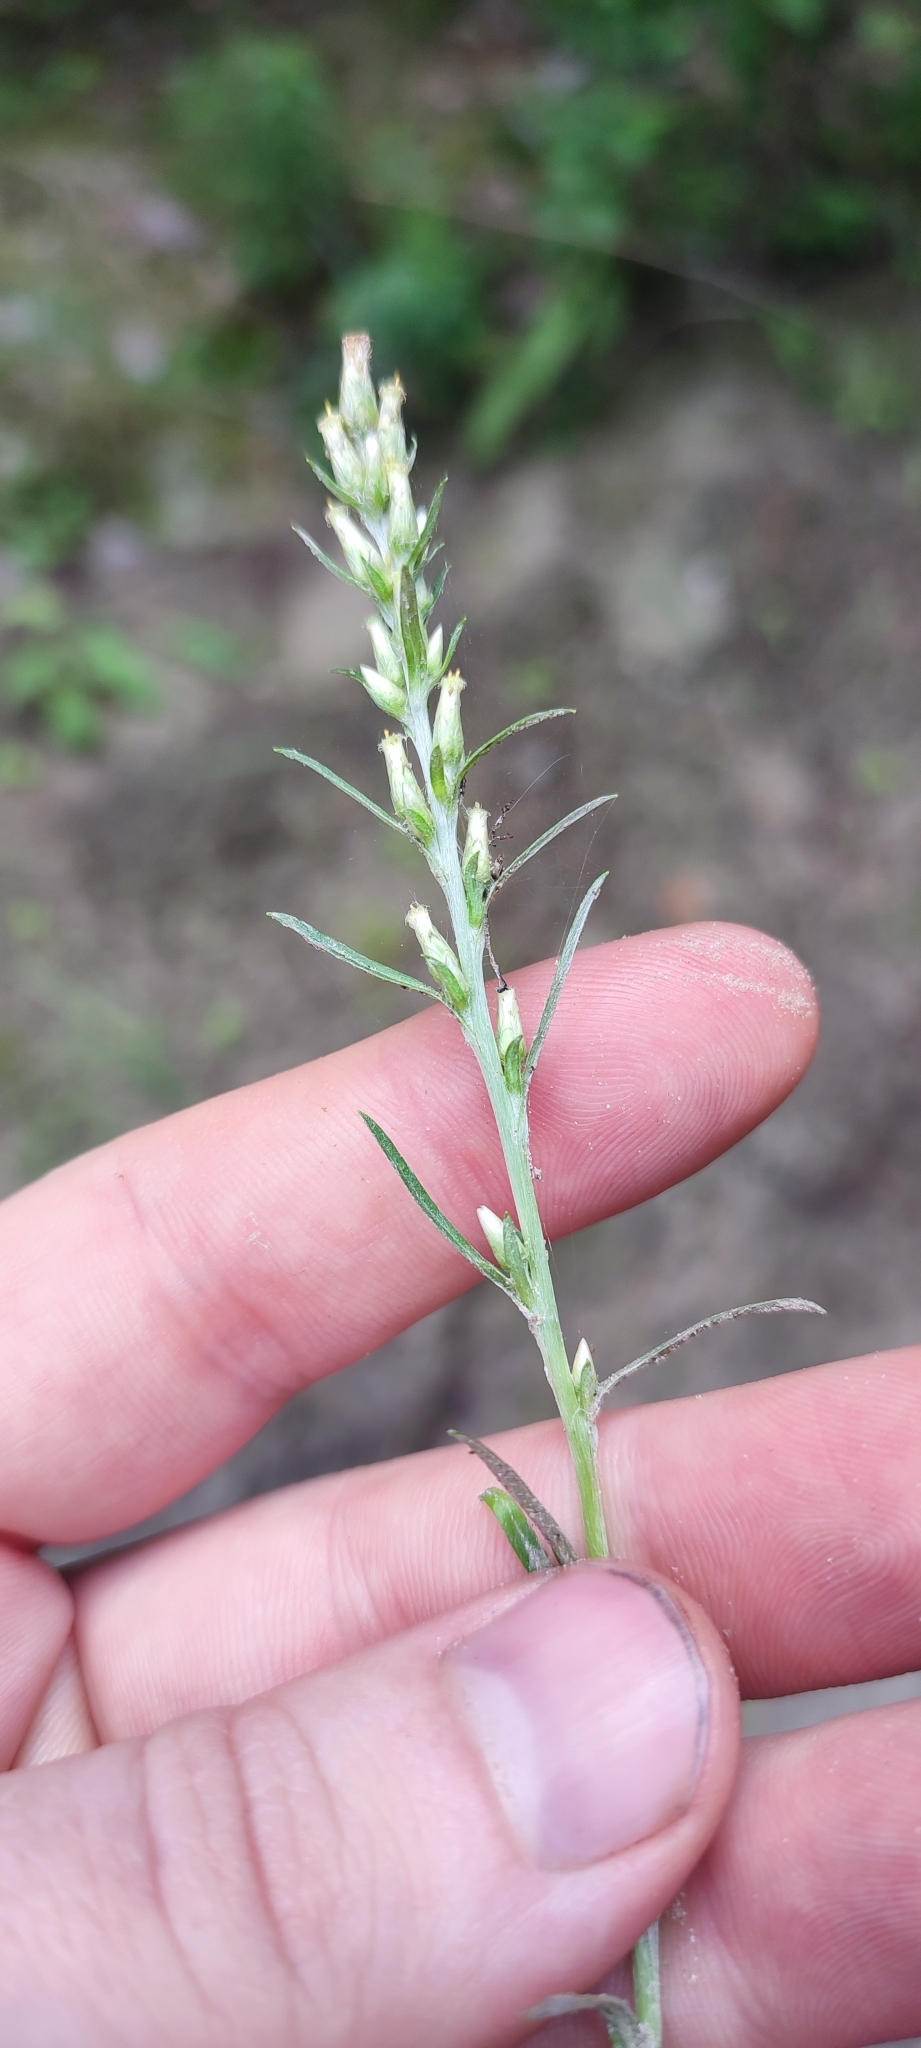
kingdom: Plantae
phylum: Tracheophyta
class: Magnoliopsida
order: Asterales
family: Asteraceae
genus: Omalotheca
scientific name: Omalotheca sylvatica
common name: Heath cudweed
